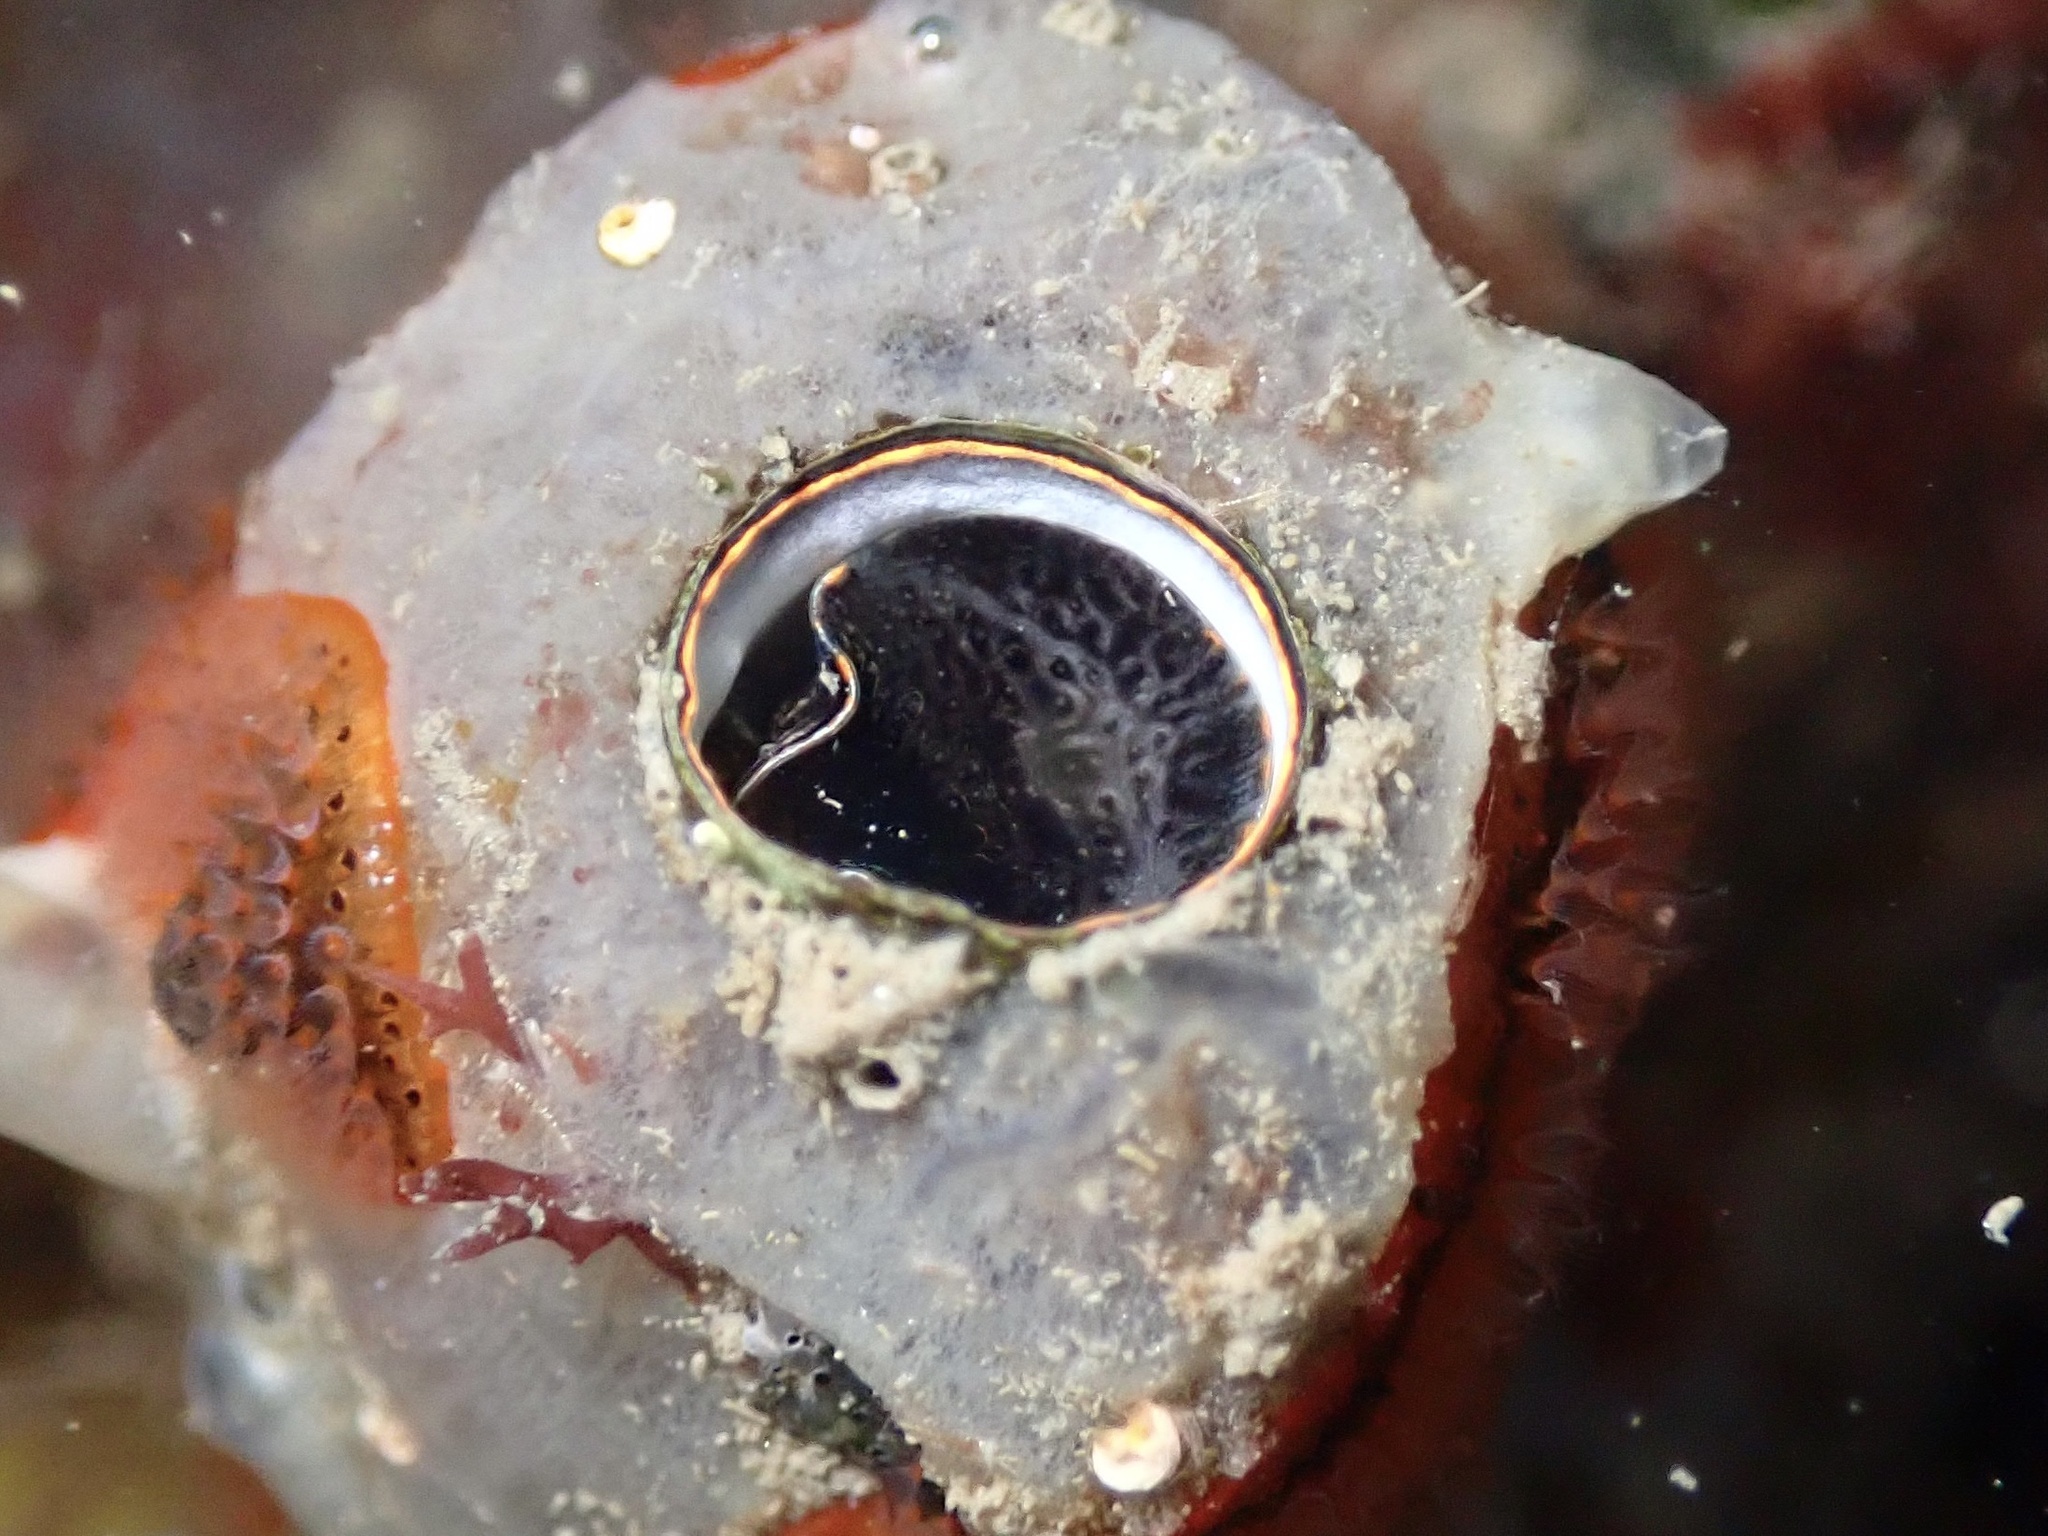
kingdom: Animalia
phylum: Mollusca
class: Gastropoda
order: Littorinimorpha
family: Vermetidae
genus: Thylacodes
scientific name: Thylacodes squamigerus
